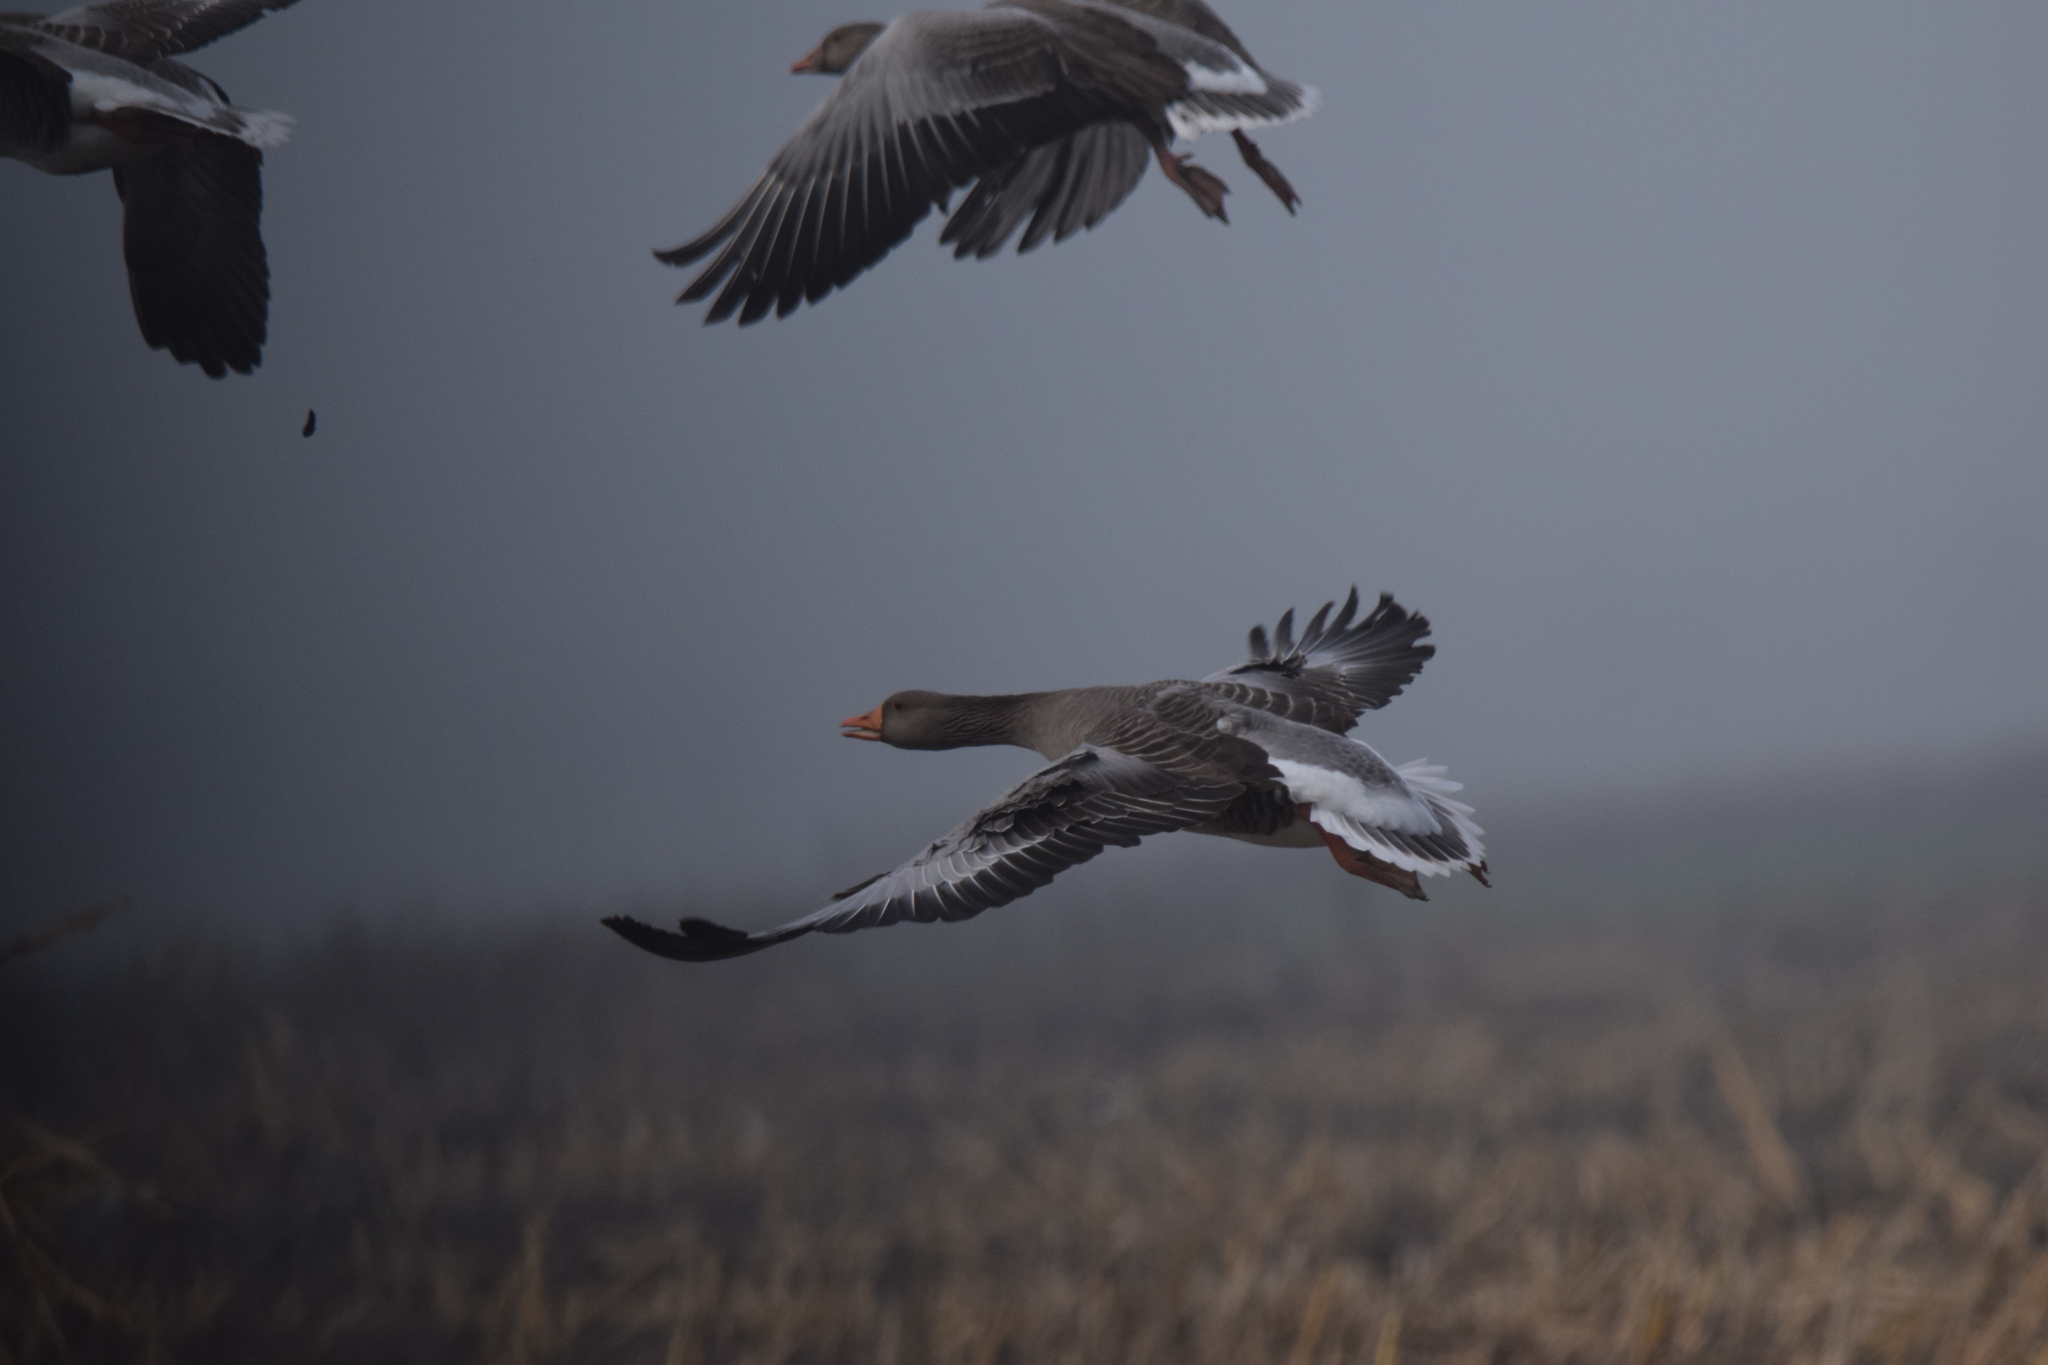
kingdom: Animalia
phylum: Chordata
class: Aves
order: Anseriformes
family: Anatidae
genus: Anser
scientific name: Anser anser
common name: Greylag goose
